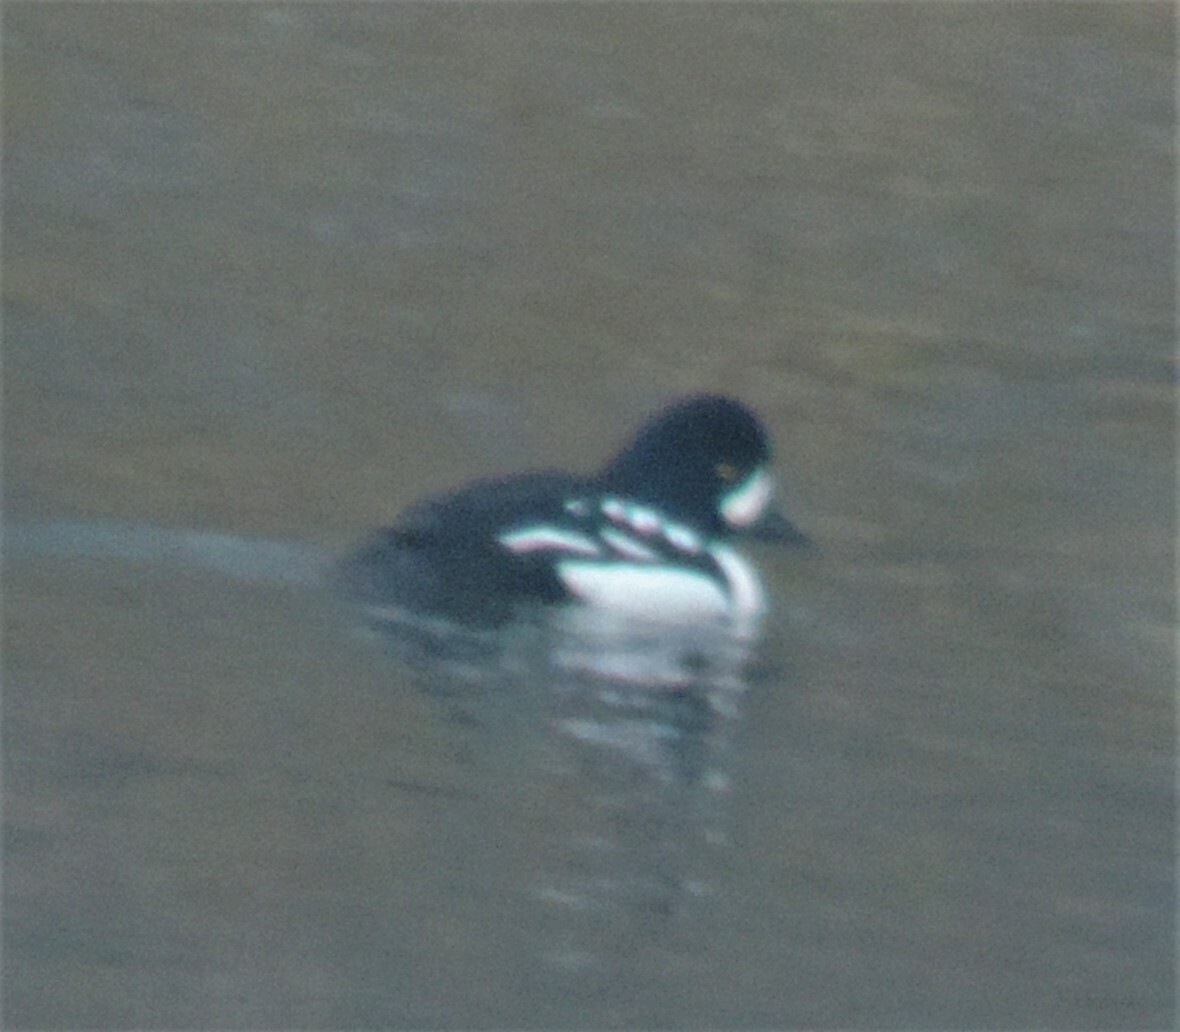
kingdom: Animalia
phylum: Chordata
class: Aves
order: Anseriformes
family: Anatidae
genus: Bucephala
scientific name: Bucephala islandica
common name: Barrow's goldeneye
